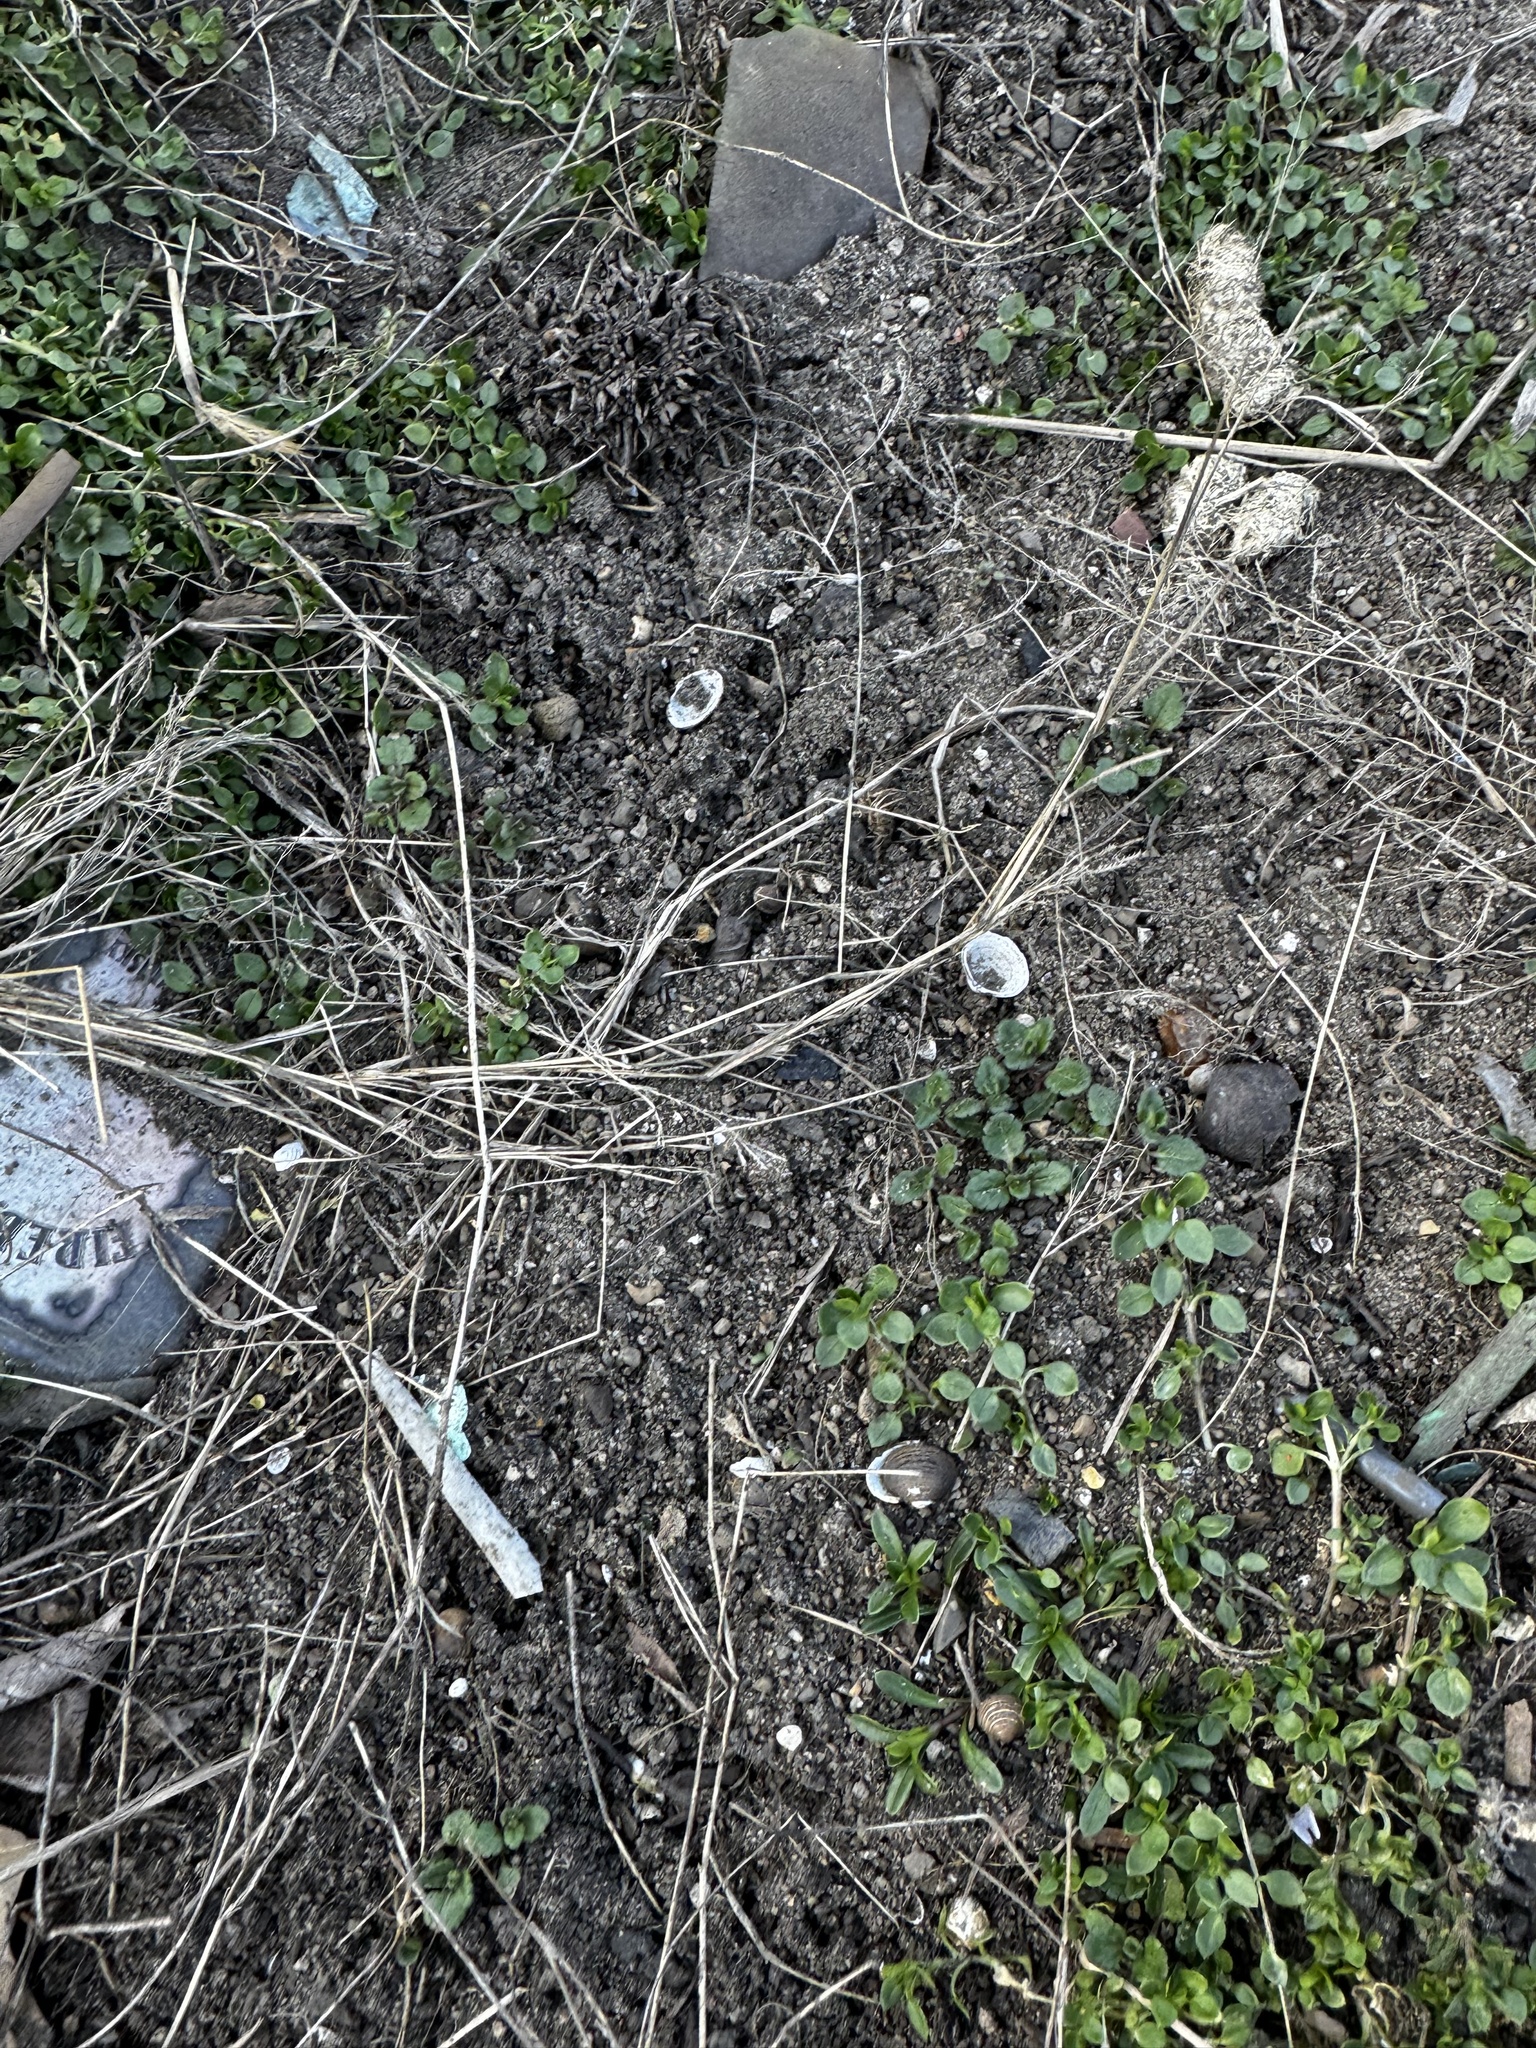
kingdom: Animalia
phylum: Mollusca
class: Bivalvia
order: Venerida
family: Cyrenidae
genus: Corbicula
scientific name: Corbicula fluminea
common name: Asian clam
